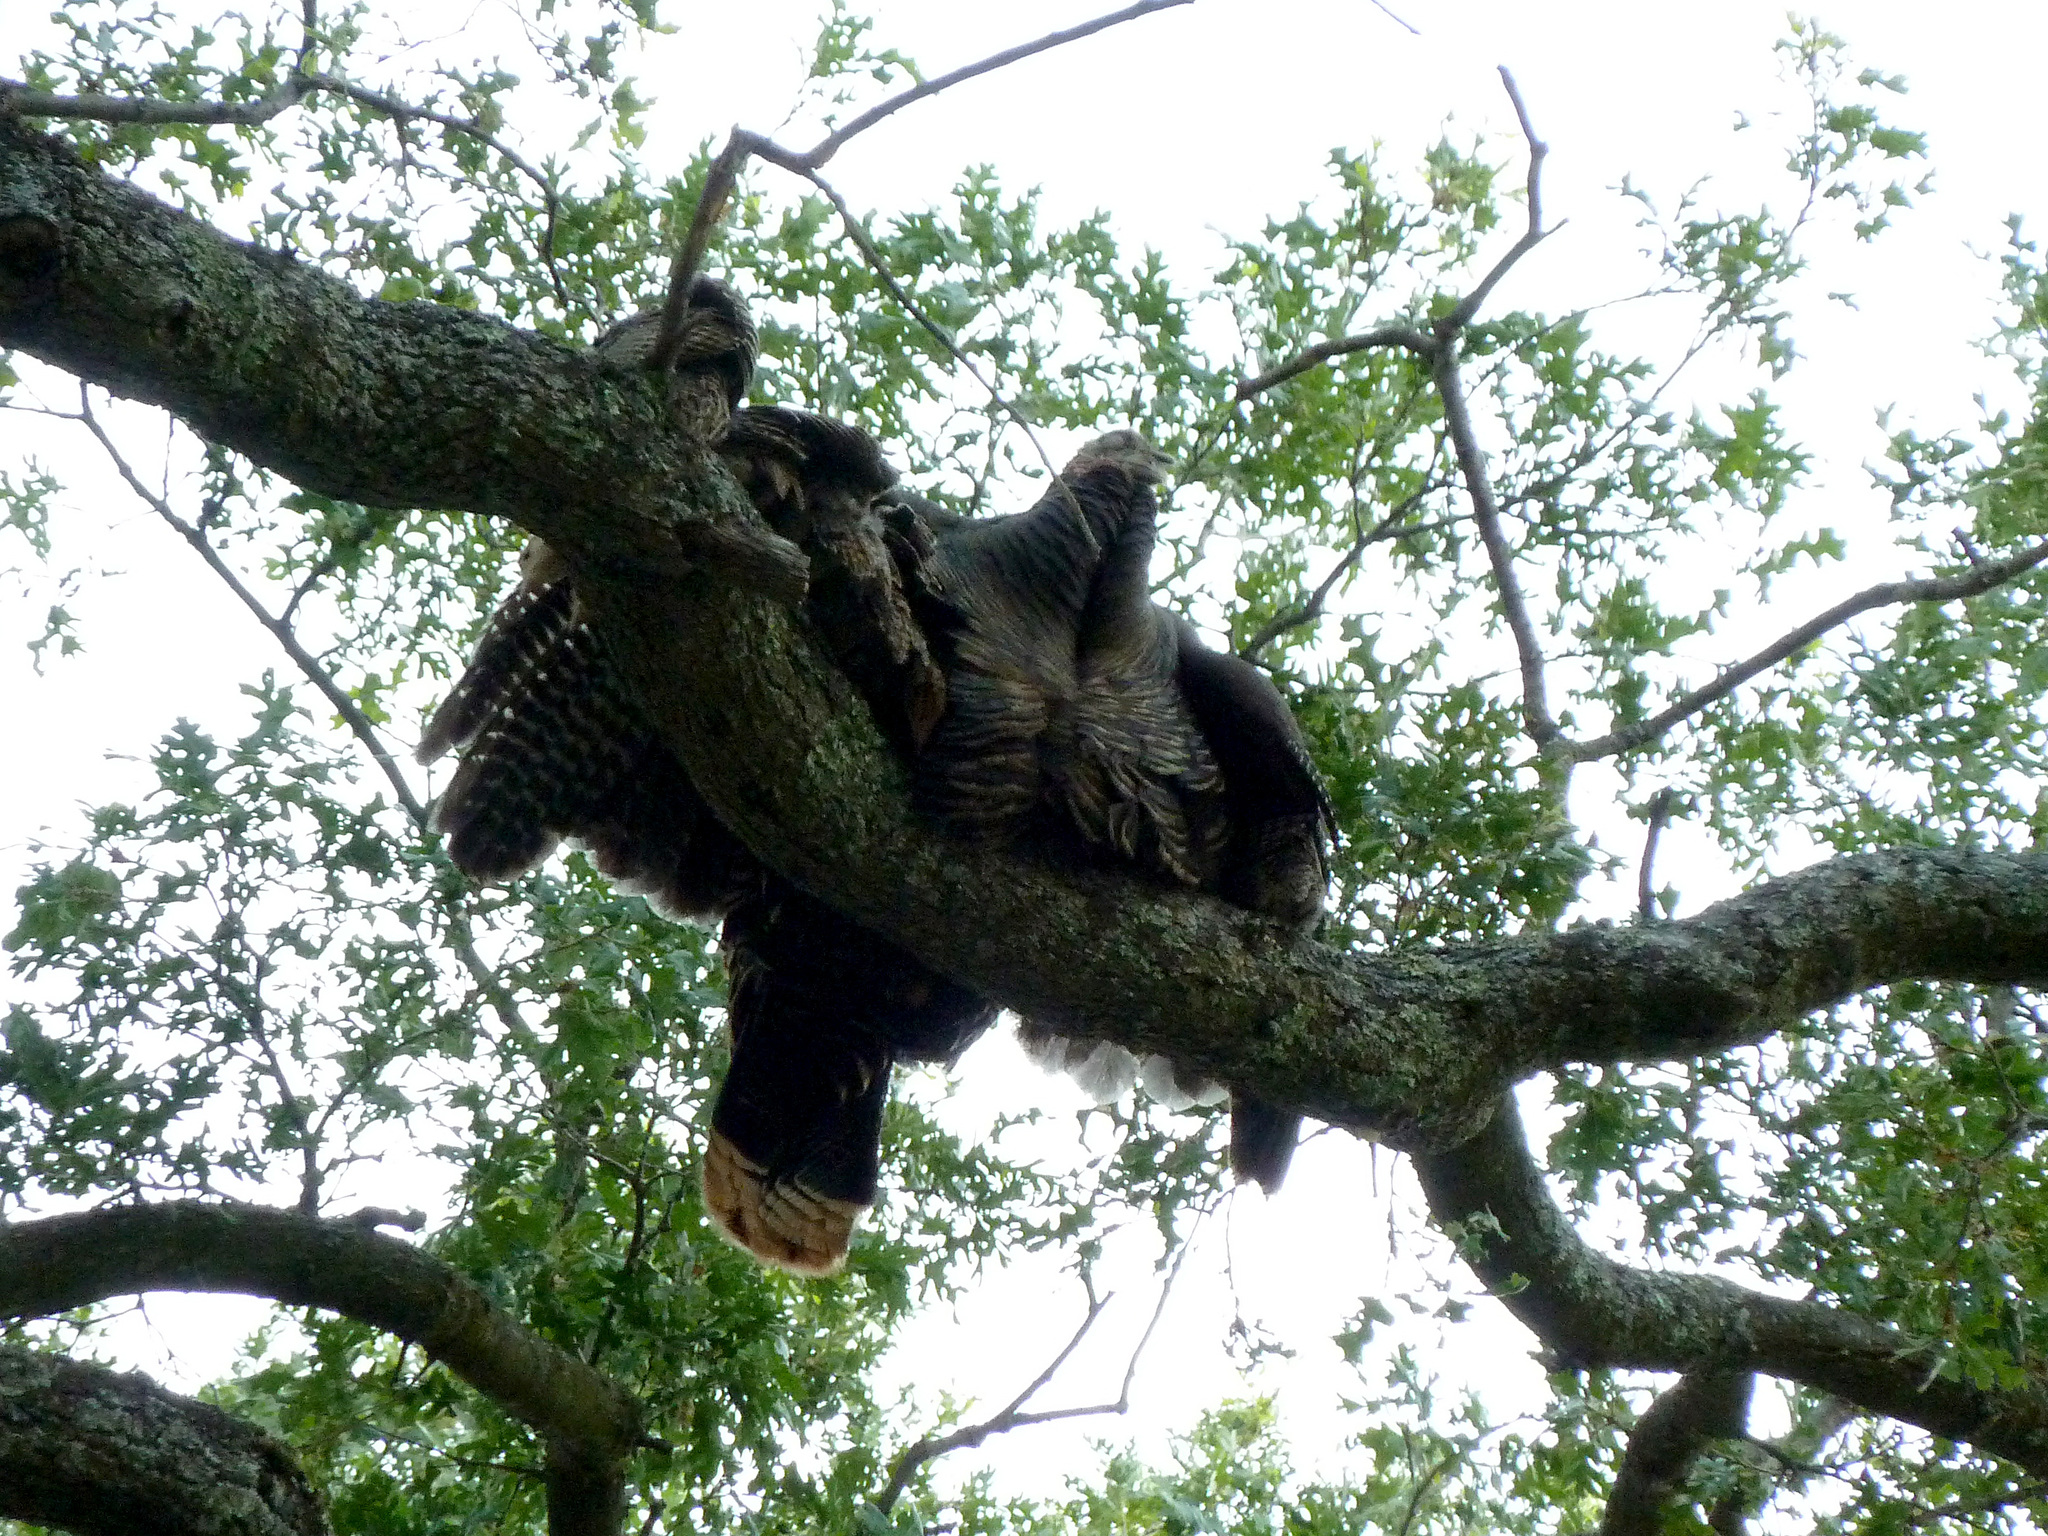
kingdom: Animalia
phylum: Chordata
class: Aves
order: Galliformes
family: Phasianidae
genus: Meleagris
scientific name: Meleagris gallopavo
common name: Wild turkey
